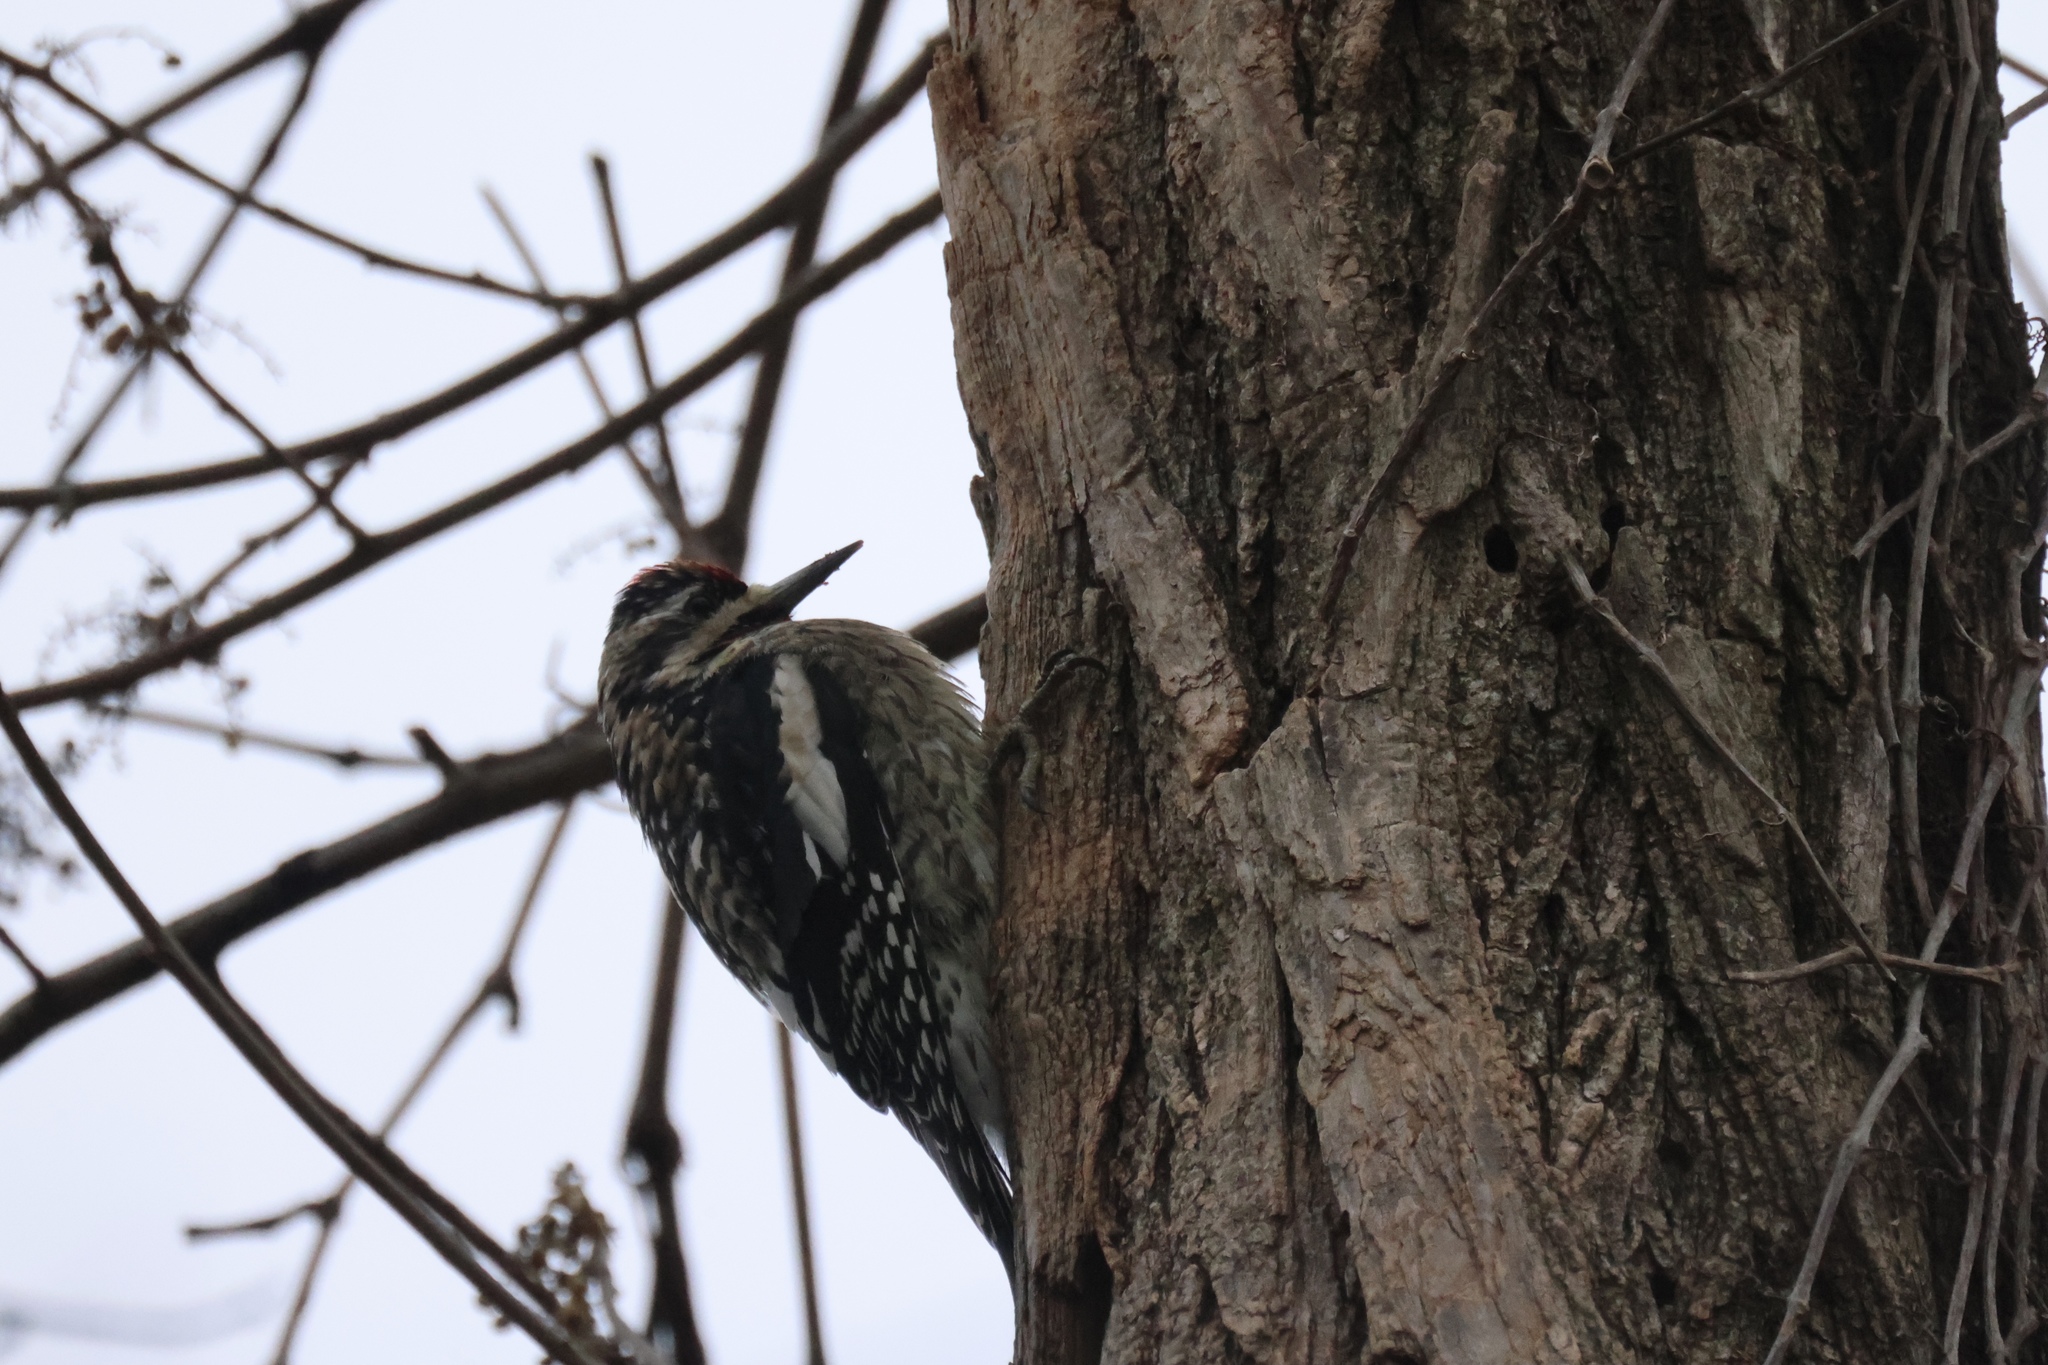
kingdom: Animalia
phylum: Chordata
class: Aves
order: Piciformes
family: Picidae
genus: Sphyrapicus
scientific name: Sphyrapicus varius
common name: Yellow-bellied sapsucker
